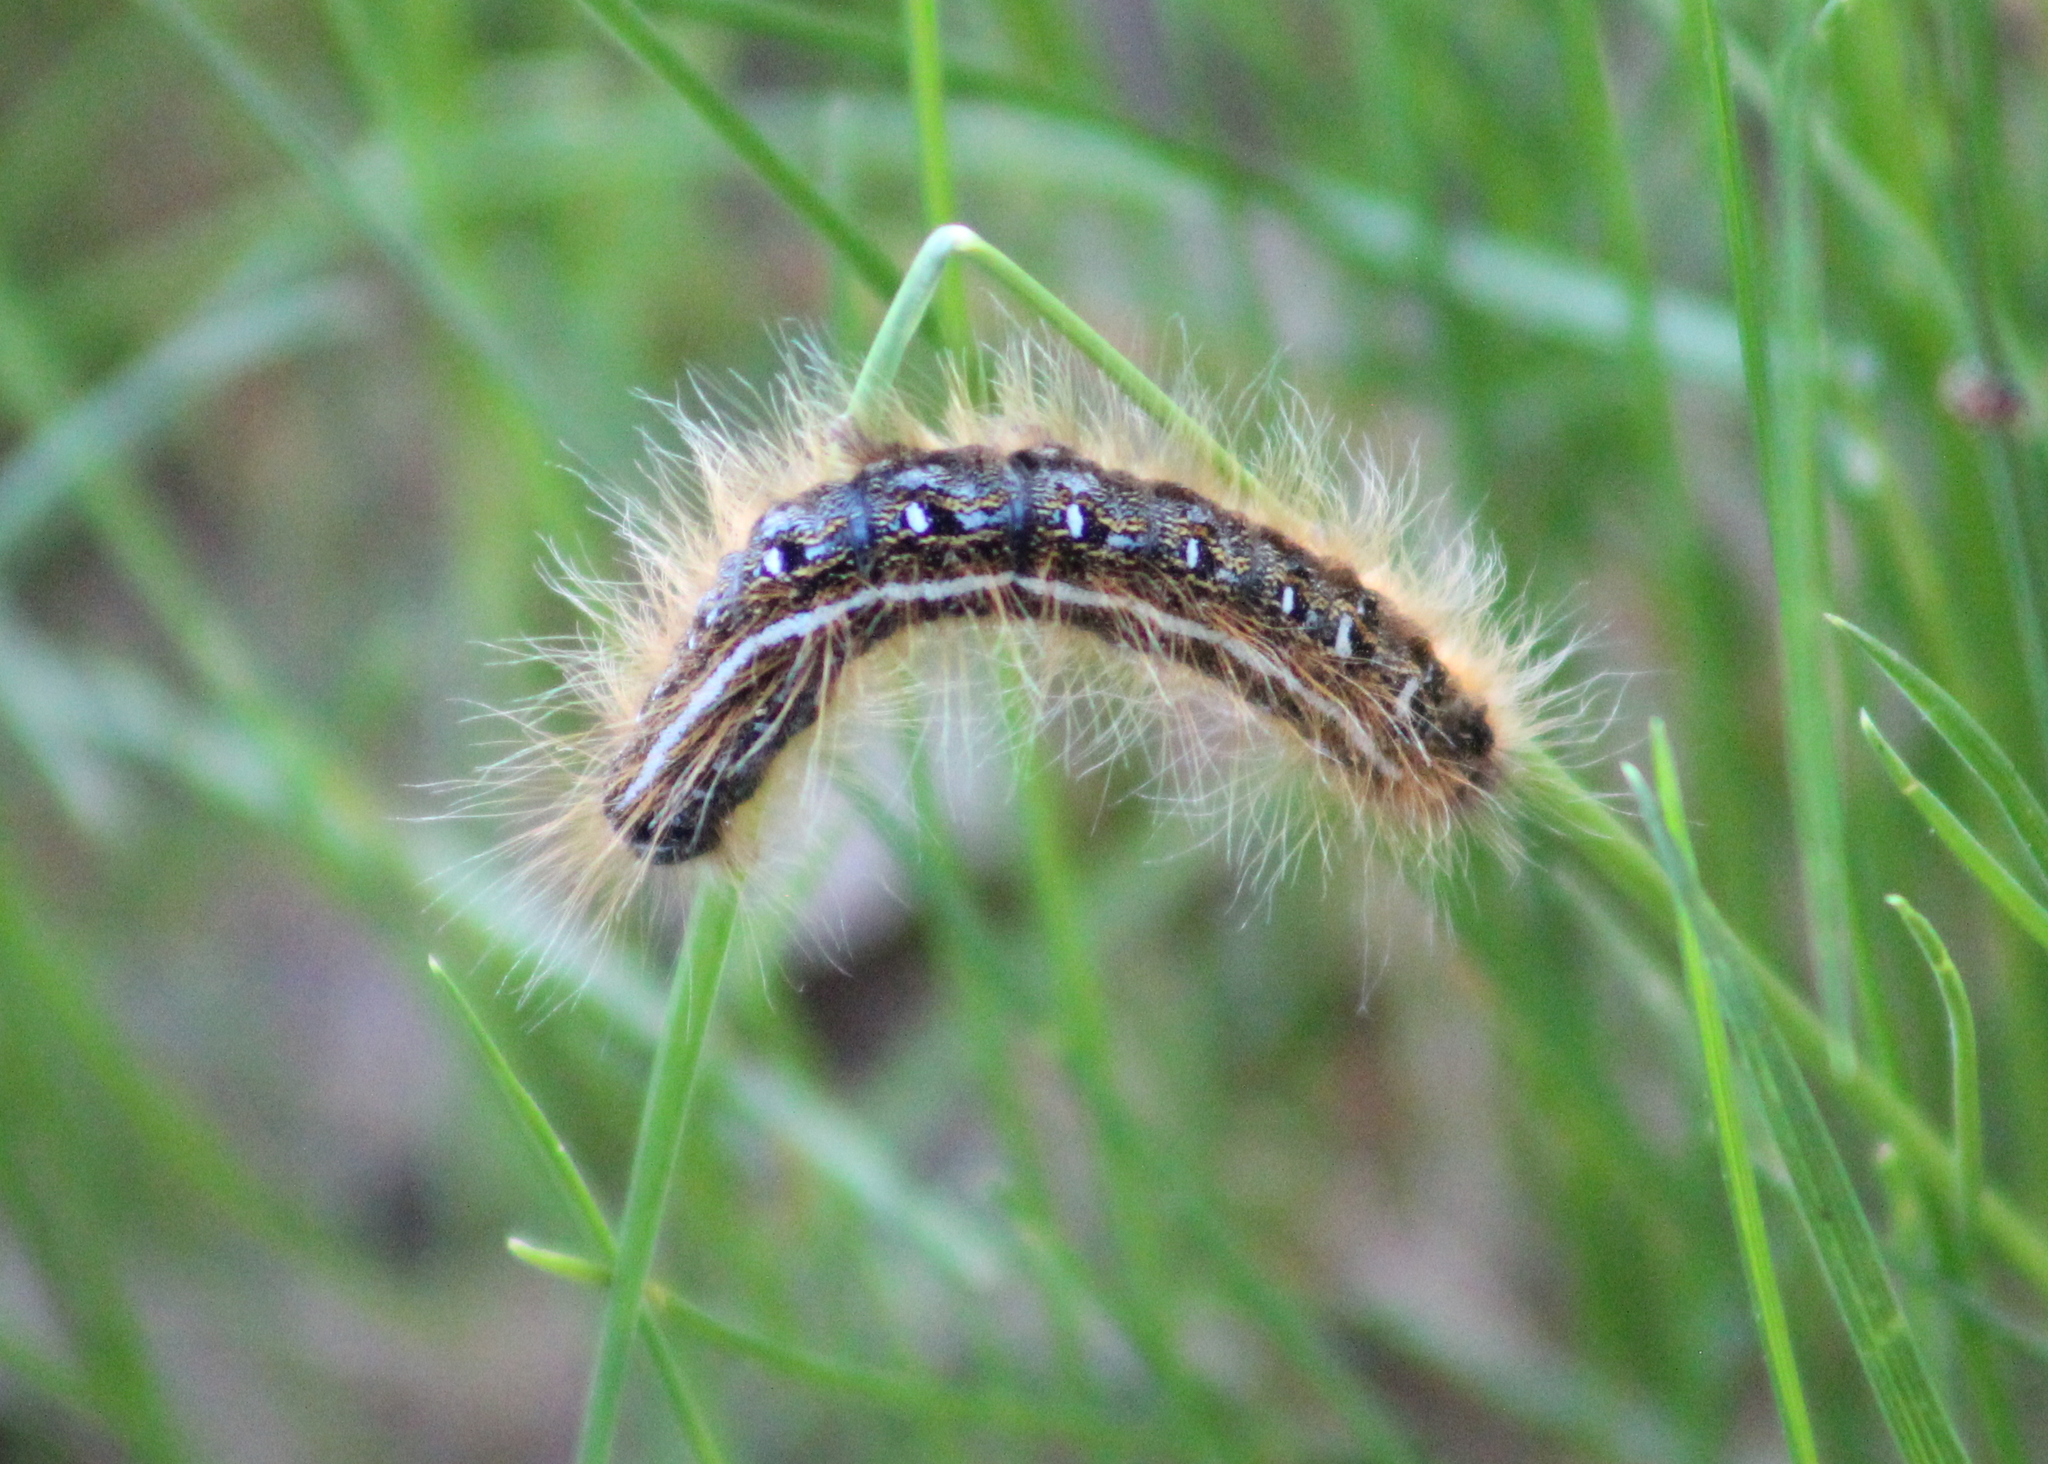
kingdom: Animalia
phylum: Arthropoda
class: Insecta
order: Lepidoptera
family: Lasiocampidae
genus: Malacosoma
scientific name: Malacosoma americana
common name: Eastern tent caterpillar moth
